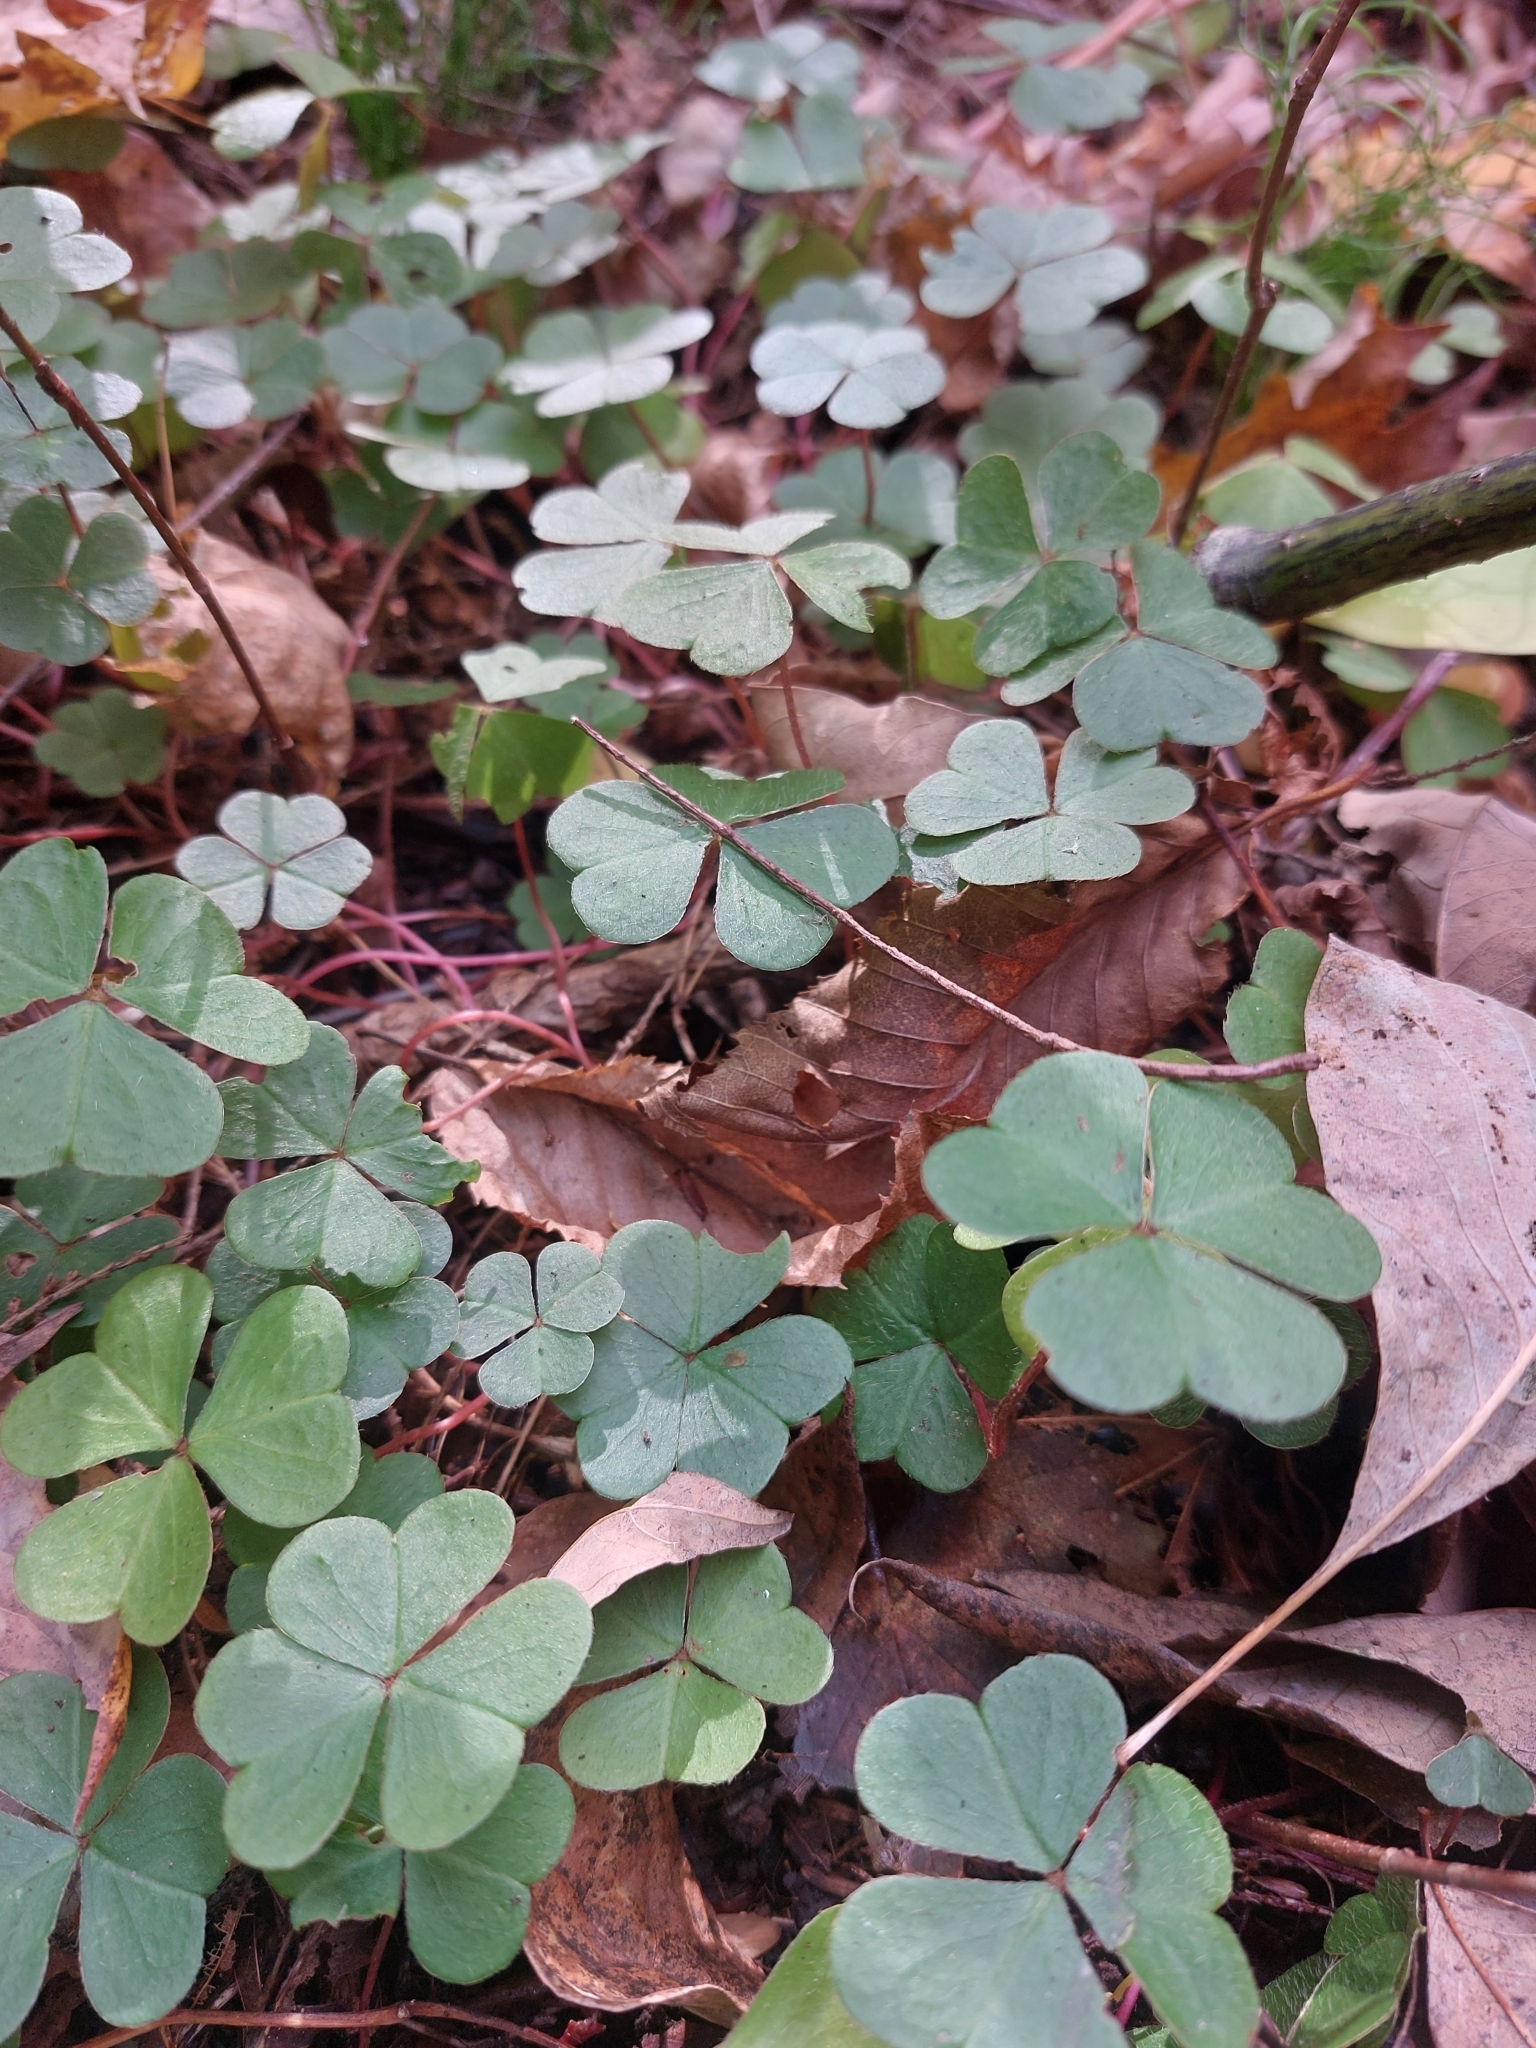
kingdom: Plantae
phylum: Tracheophyta
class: Magnoliopsida
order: Oxalidales
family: Oxalidaceae
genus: Oxalis
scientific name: Oxalis montana
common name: American wood-sorrel
